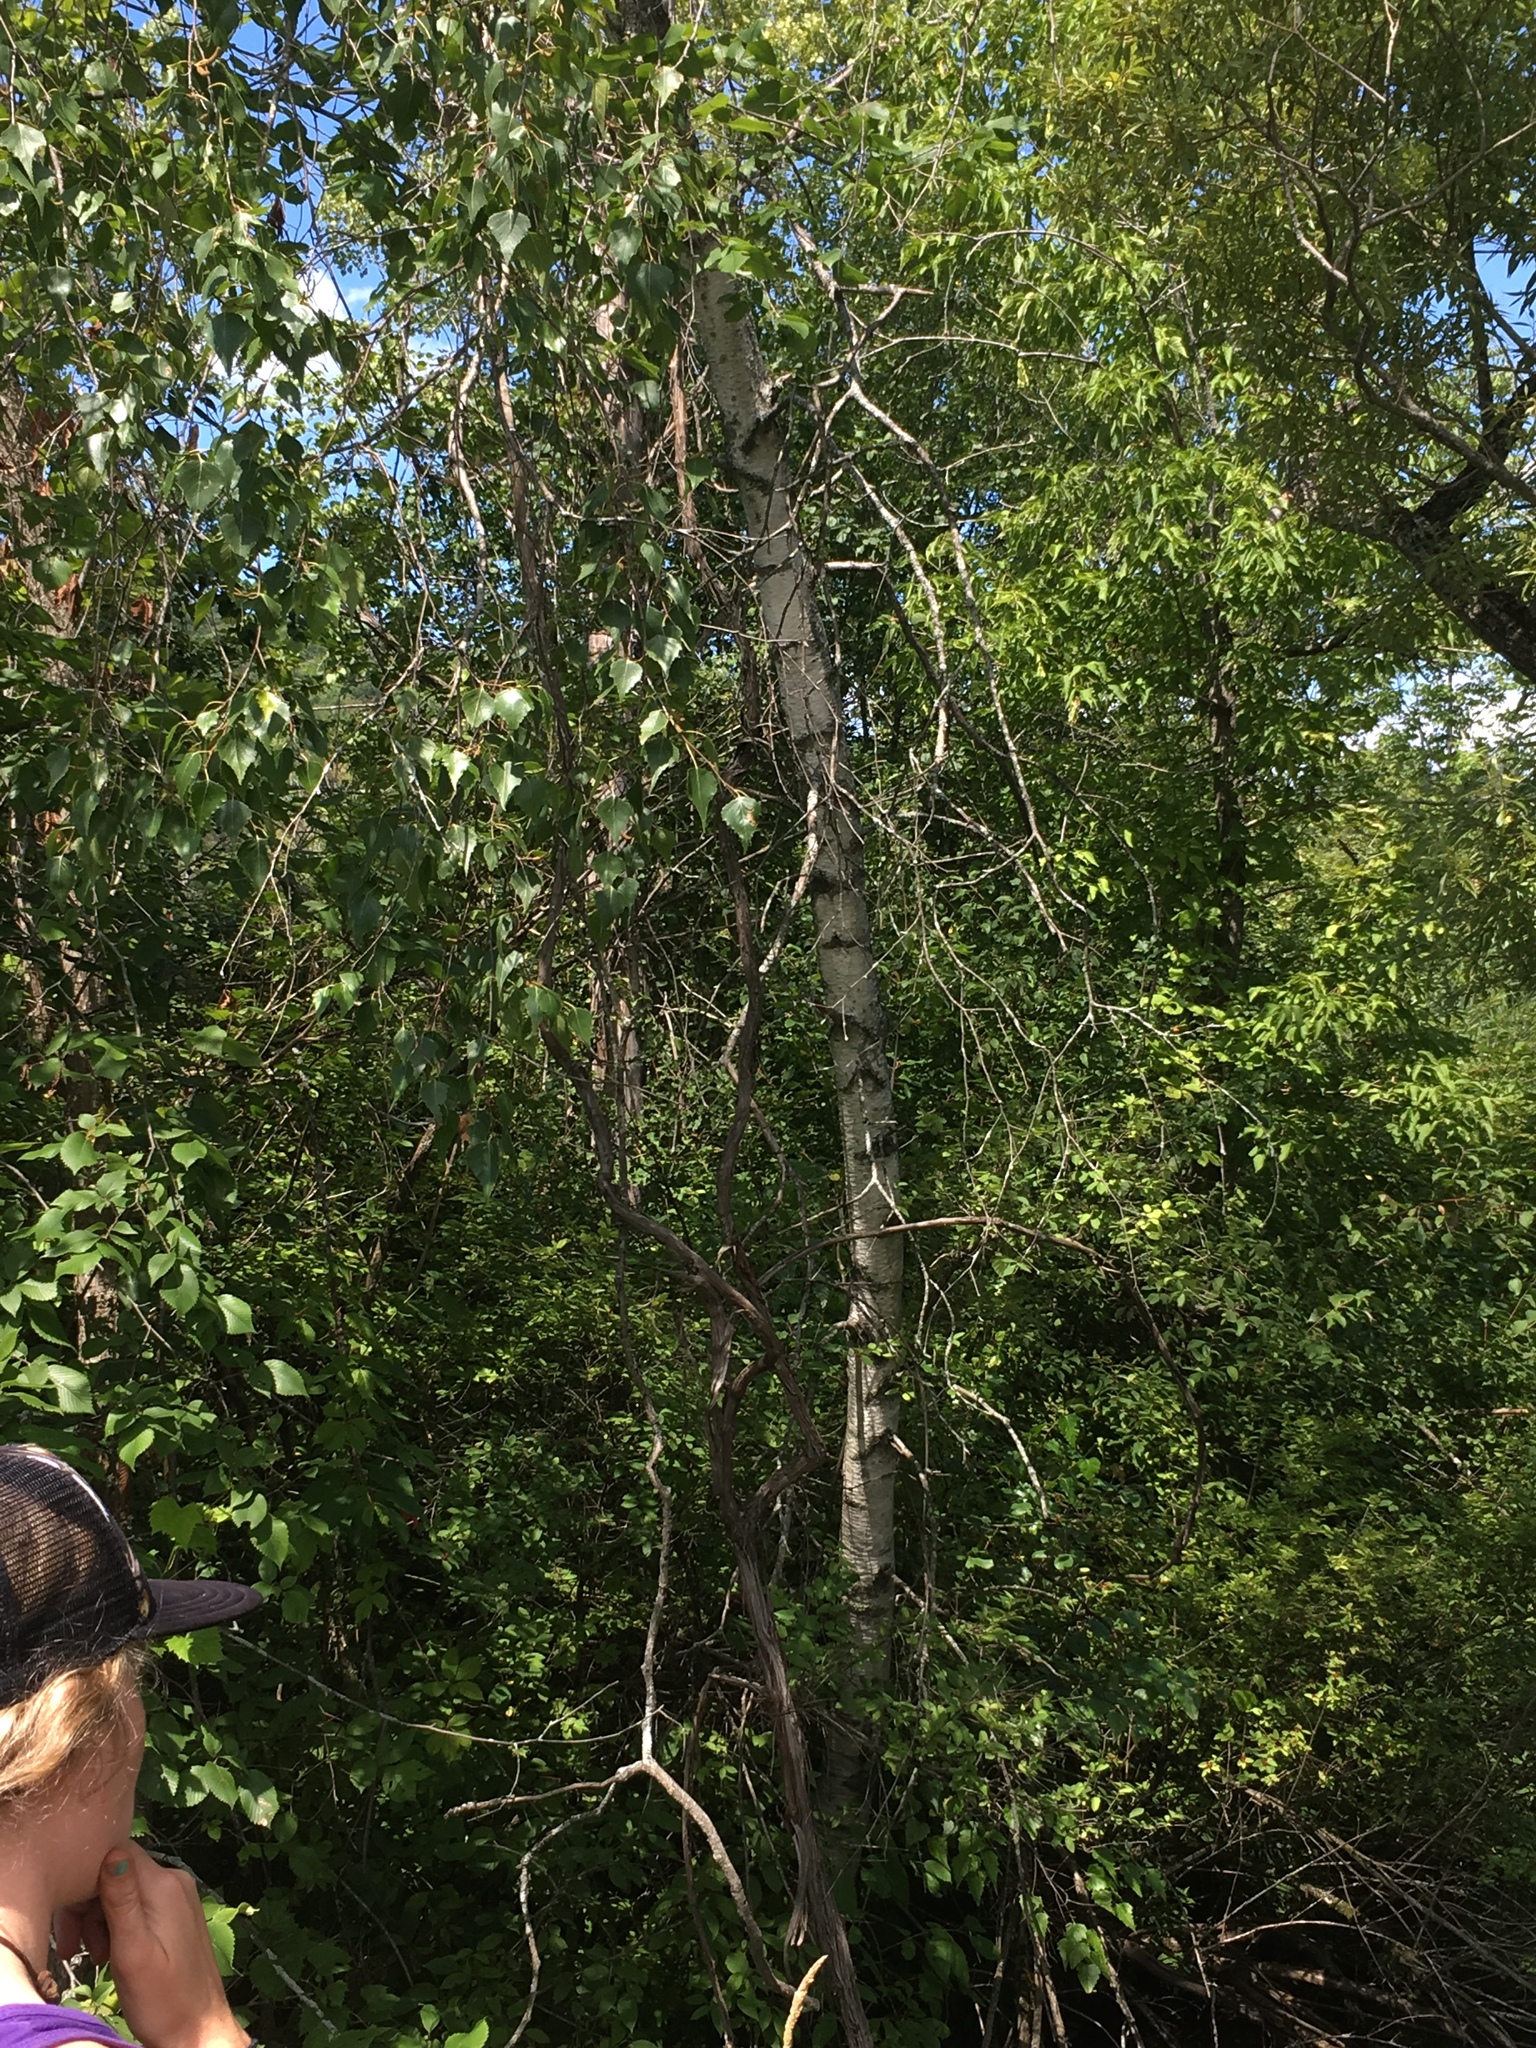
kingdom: Plantae
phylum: Tracheophyta
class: Magnoliopsida
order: Fagales
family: Betulaceae
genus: Betula
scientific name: Betula populifolia
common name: Fire birch
